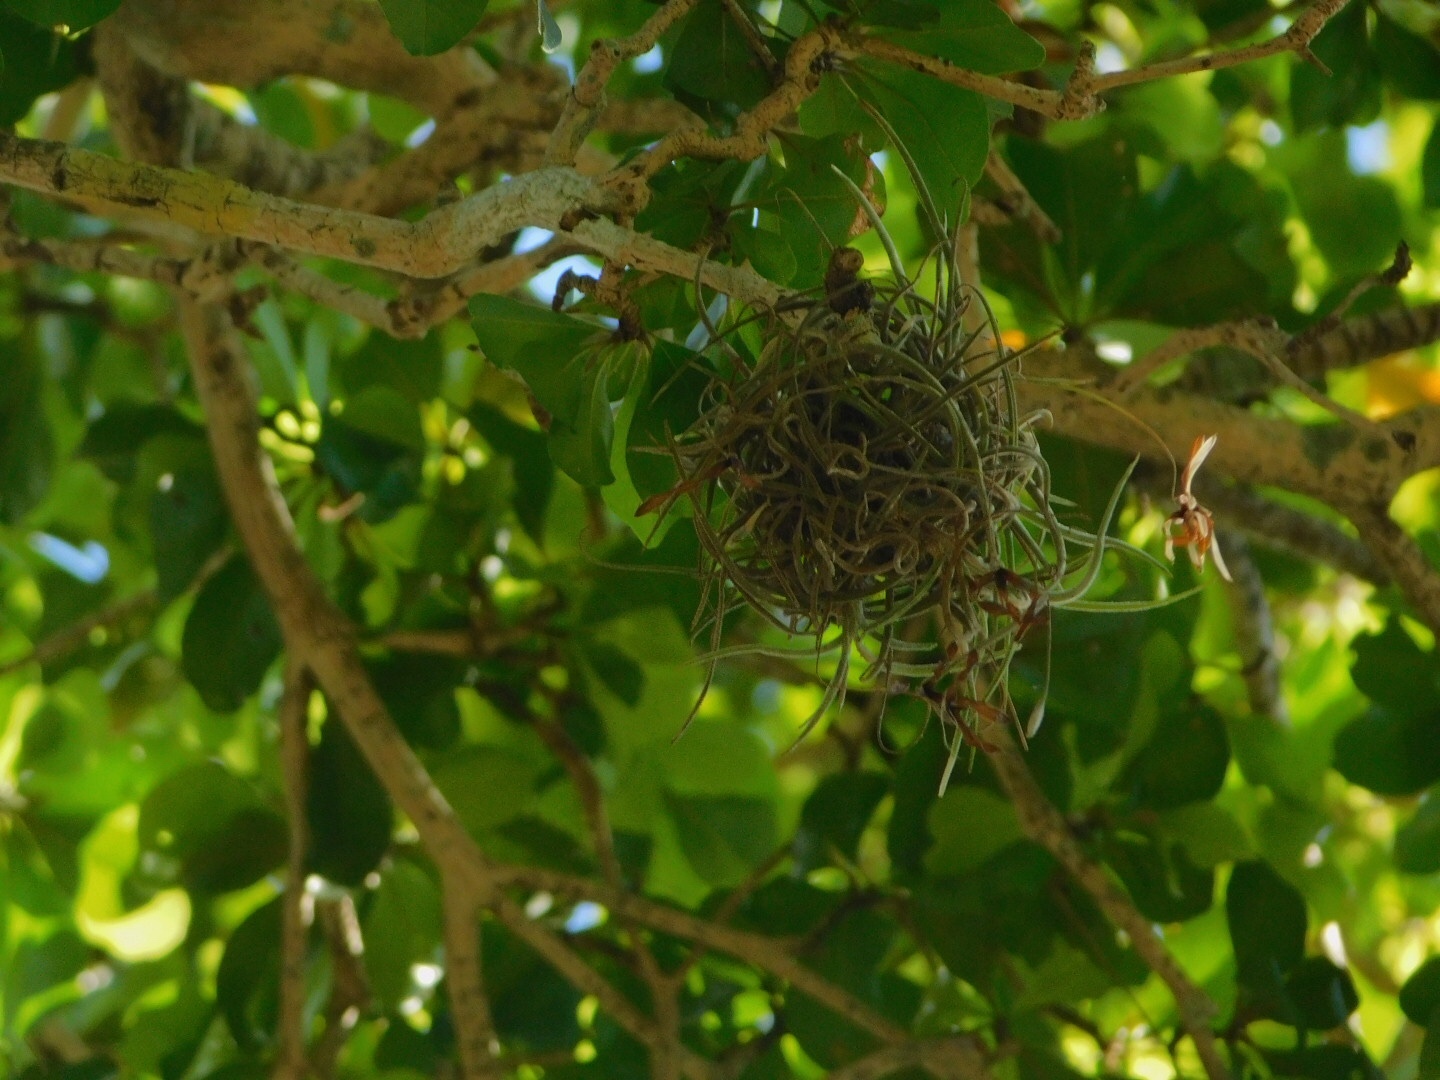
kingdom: Plantae
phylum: Tracheophyta
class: Liliopsida
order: Poales
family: Bromeliaceae
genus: Tillandsia
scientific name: Tillandsia recurvata
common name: Small ballmoss
